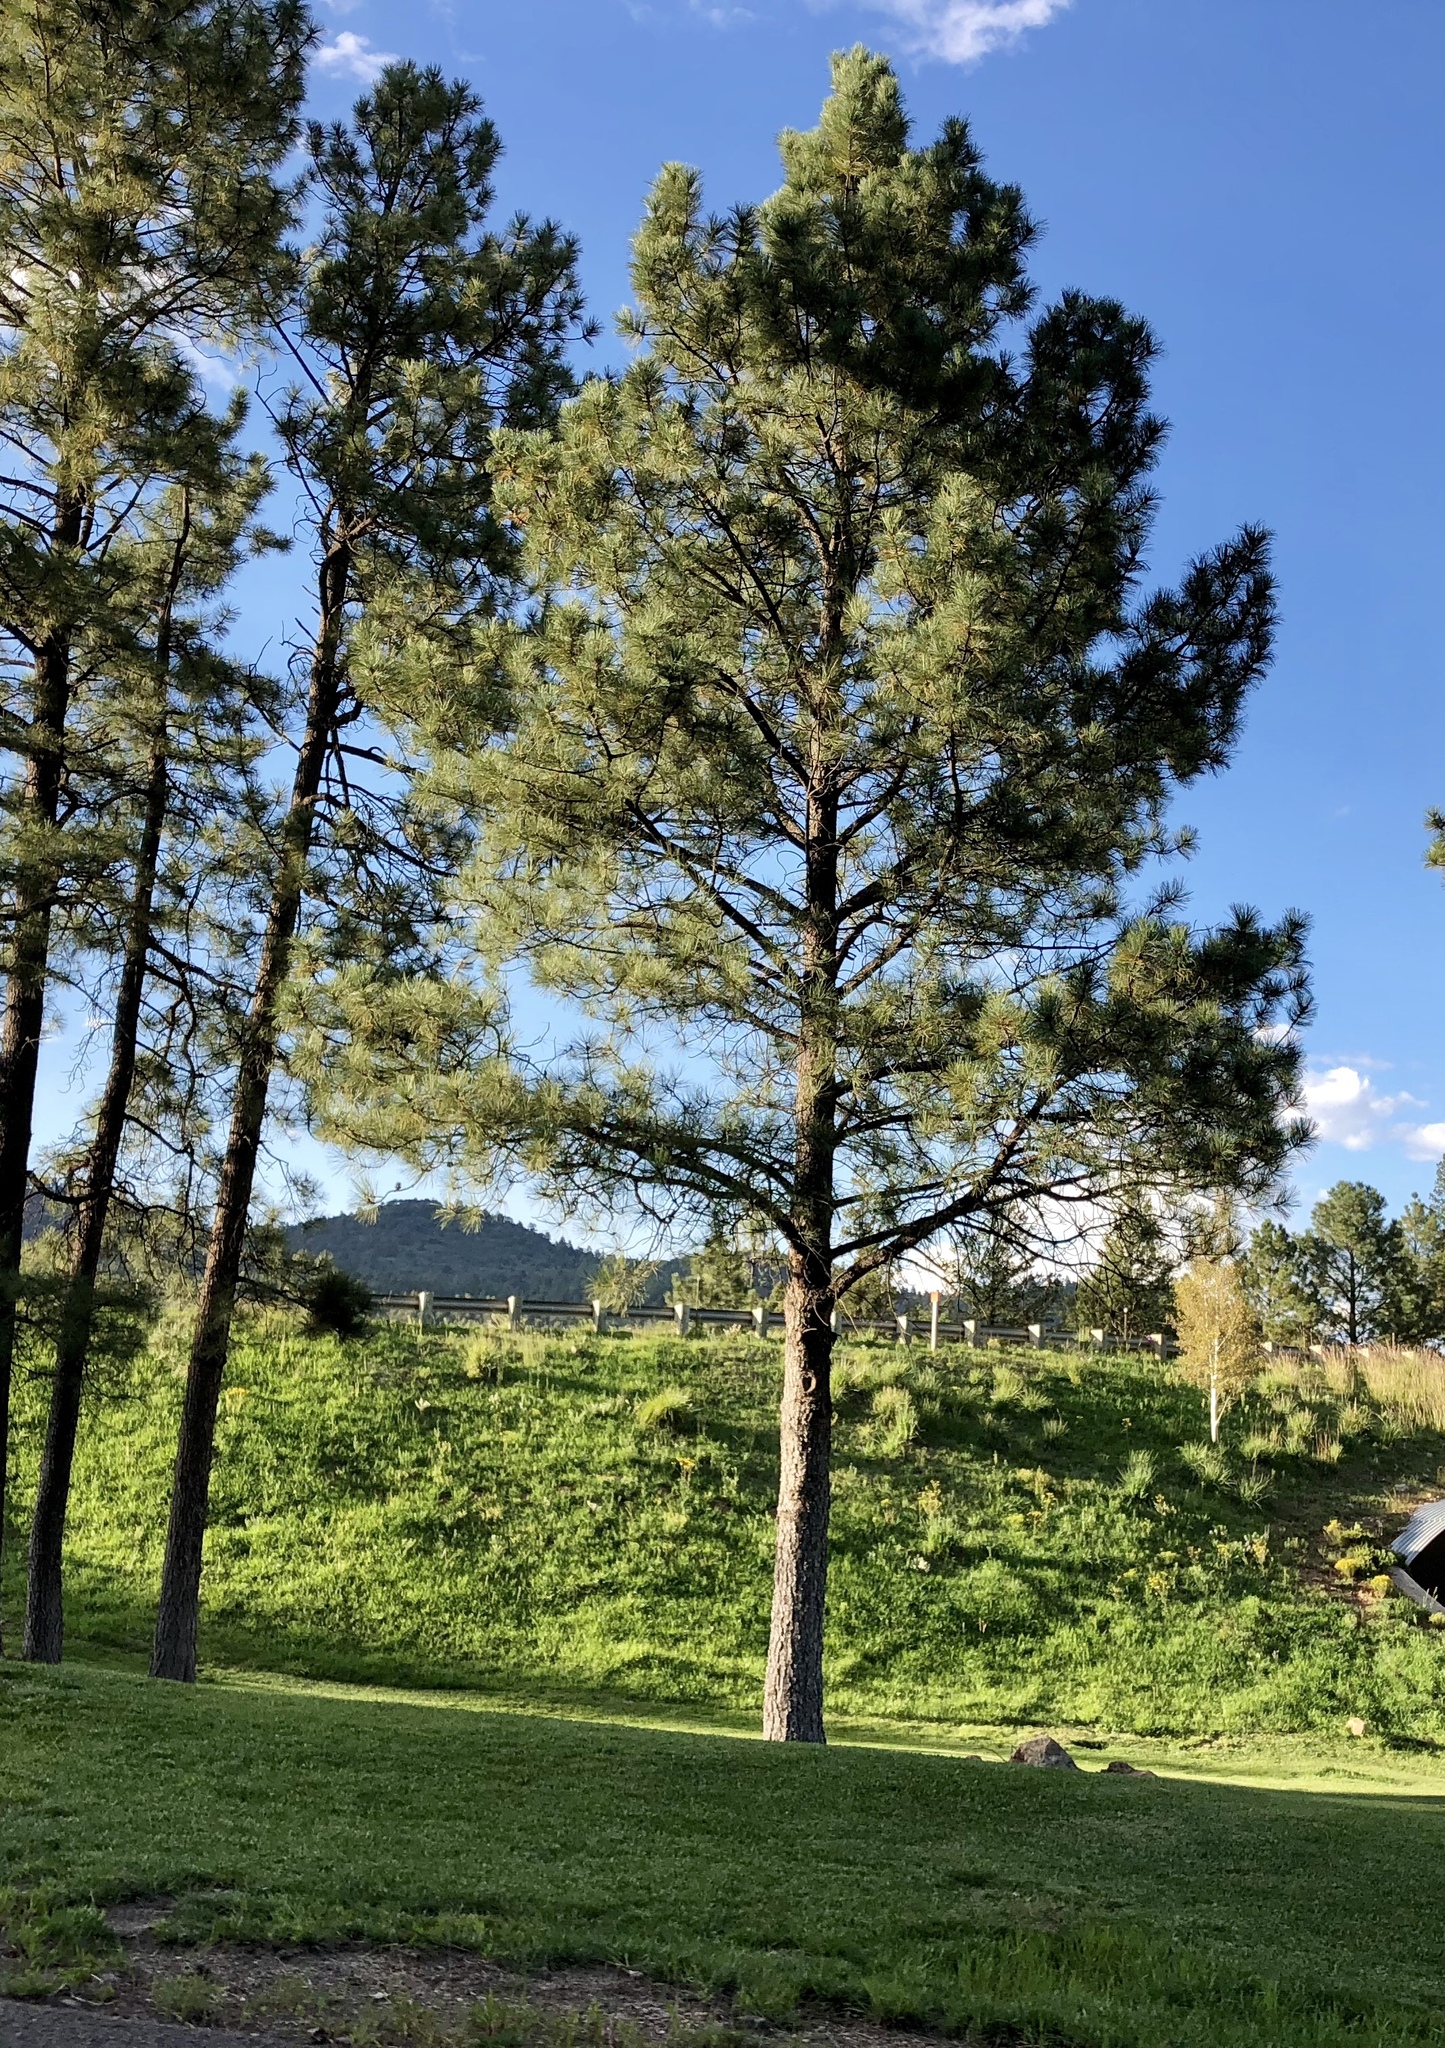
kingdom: Plantae
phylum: Tracheophyta
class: Pinopsida
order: Pinales
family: Pinaceae
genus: Pinus
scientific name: Pinus ponderosa
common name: Western yellow-pine
